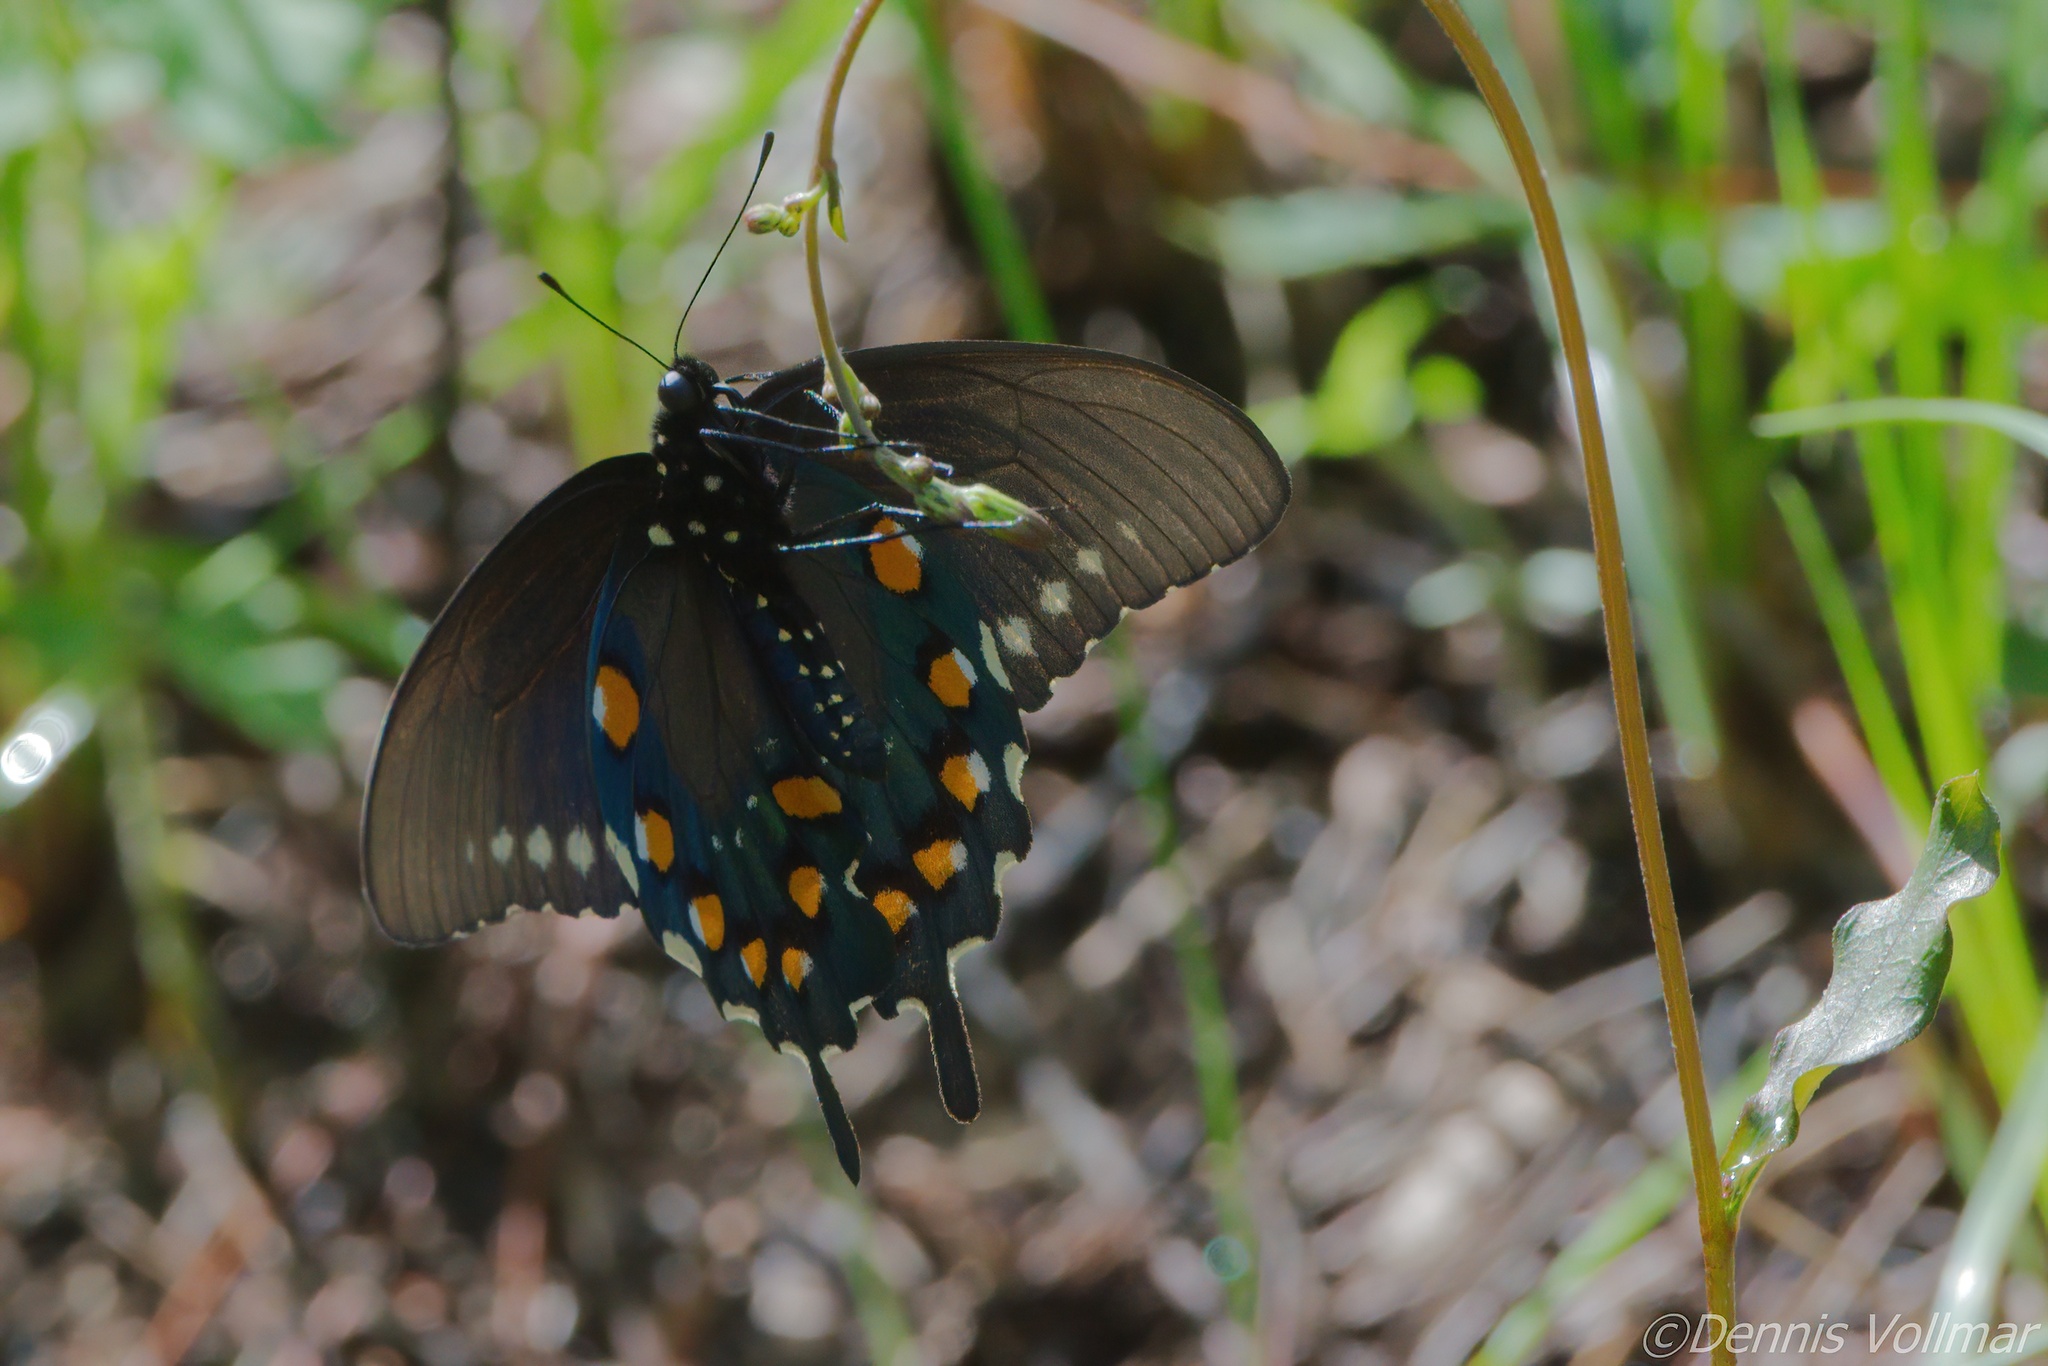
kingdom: Animalia
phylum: Arthropoda
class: Insecta
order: Lepidoptera
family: Papilionidae
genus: Battus
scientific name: Battus philenor
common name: Pipevine swallowtail
